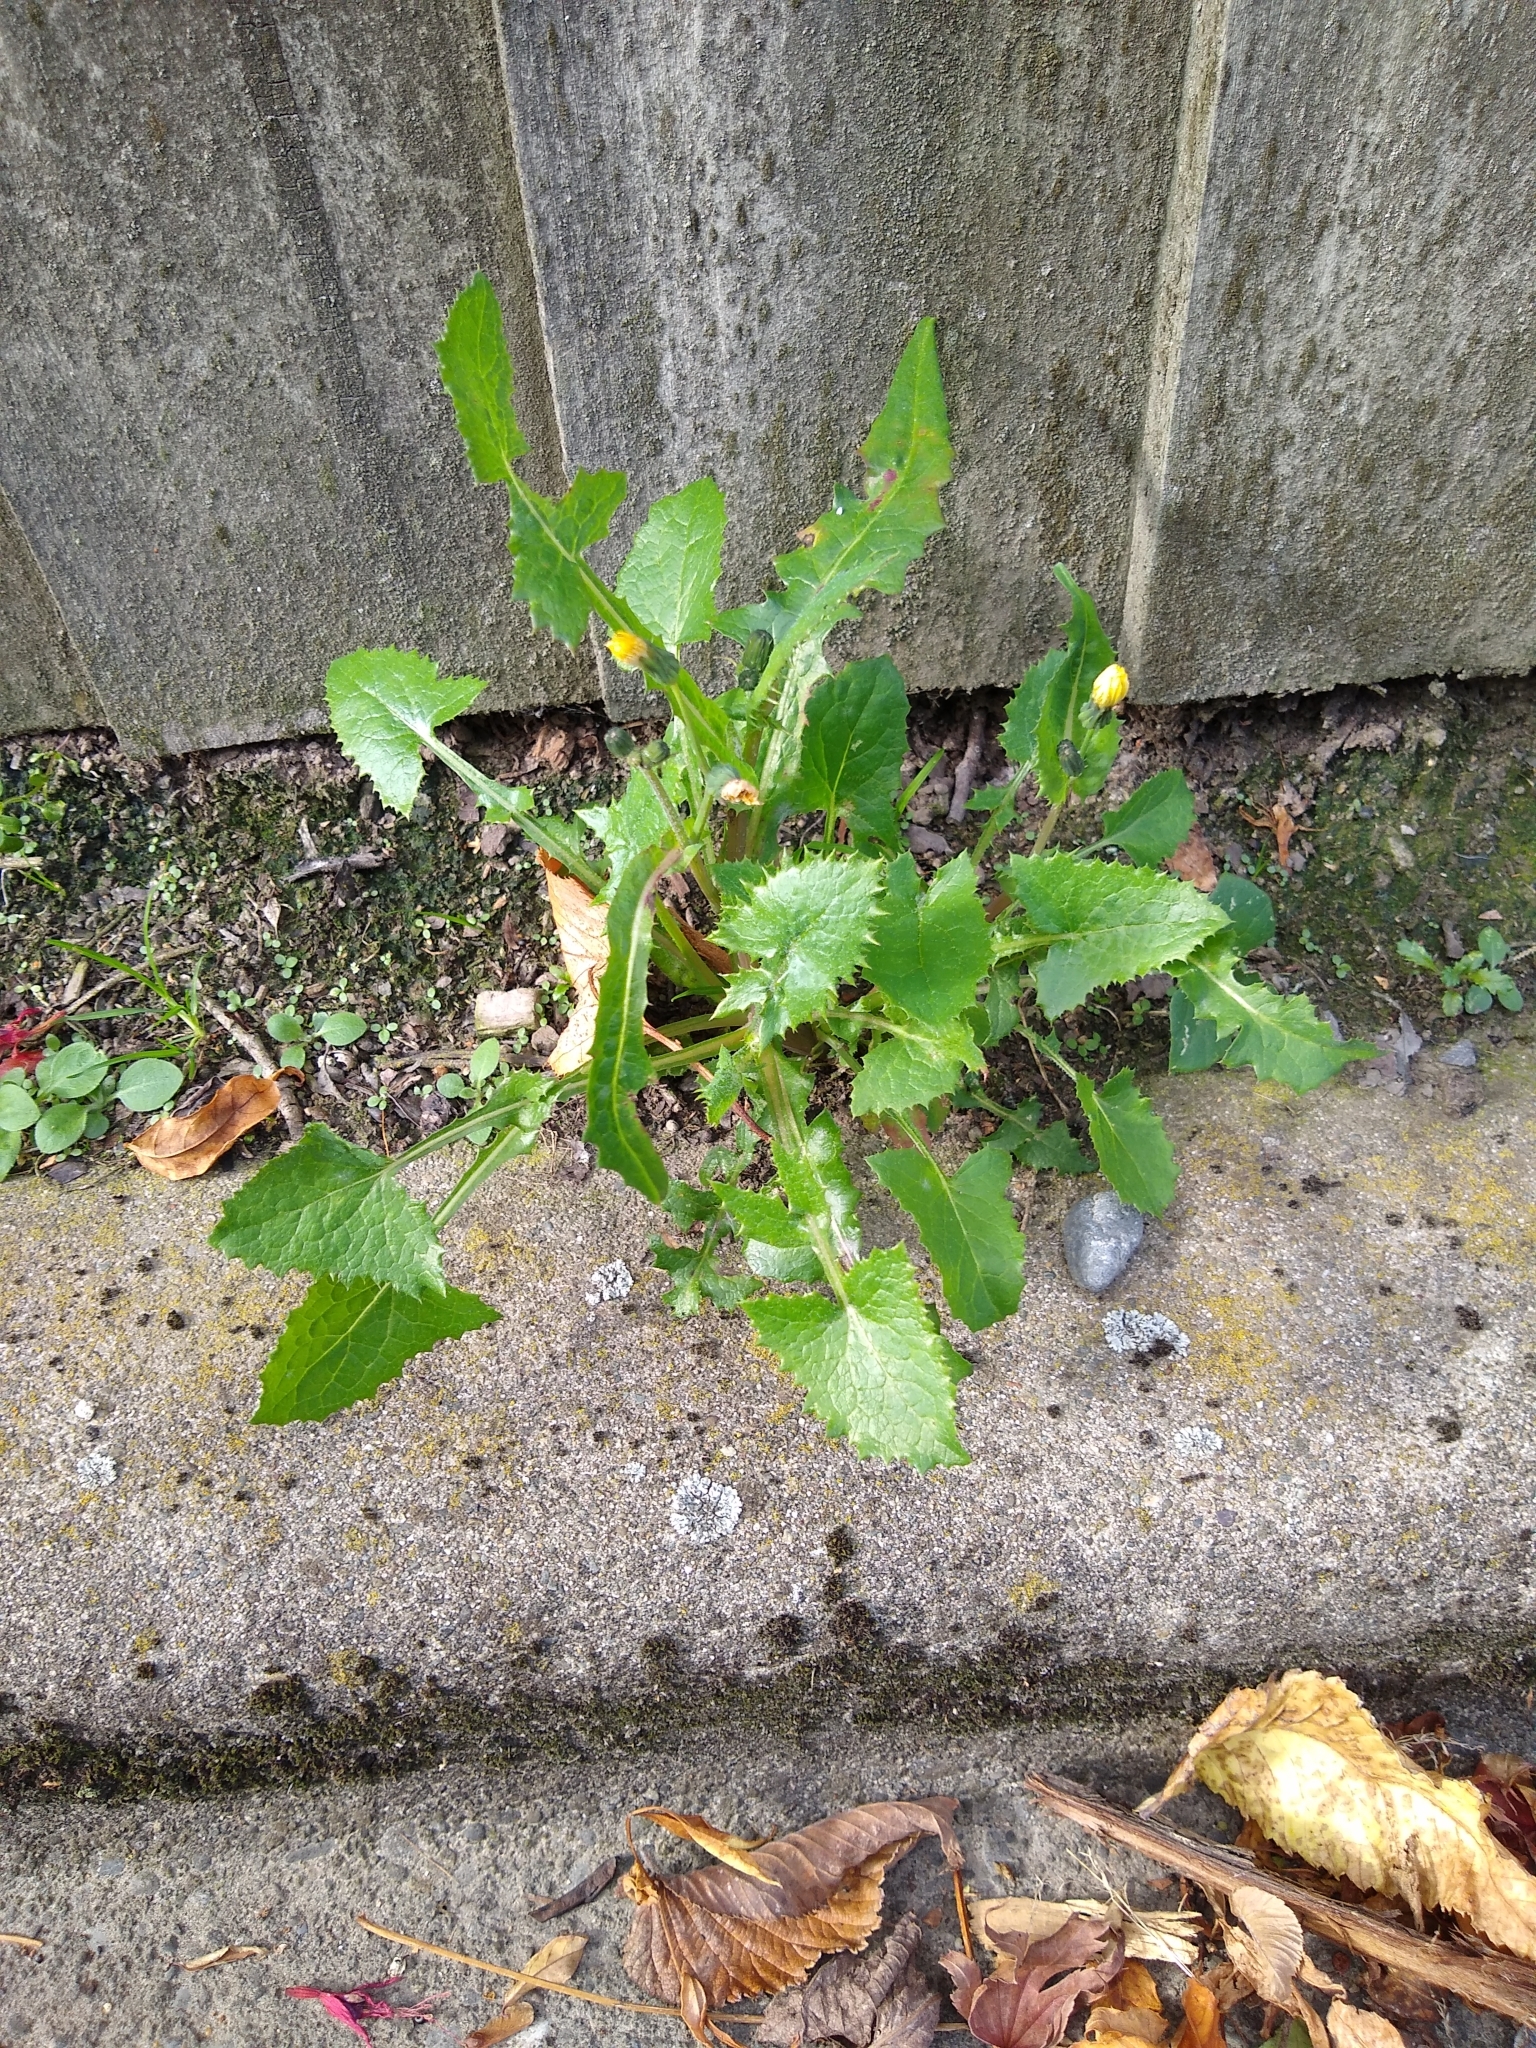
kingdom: Plantae
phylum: Tracheophyta
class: Magnoliopsida
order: Asterales
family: Asteraceae
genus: Sonchus
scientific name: Sonchus oleraceus
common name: Common sowthistle
